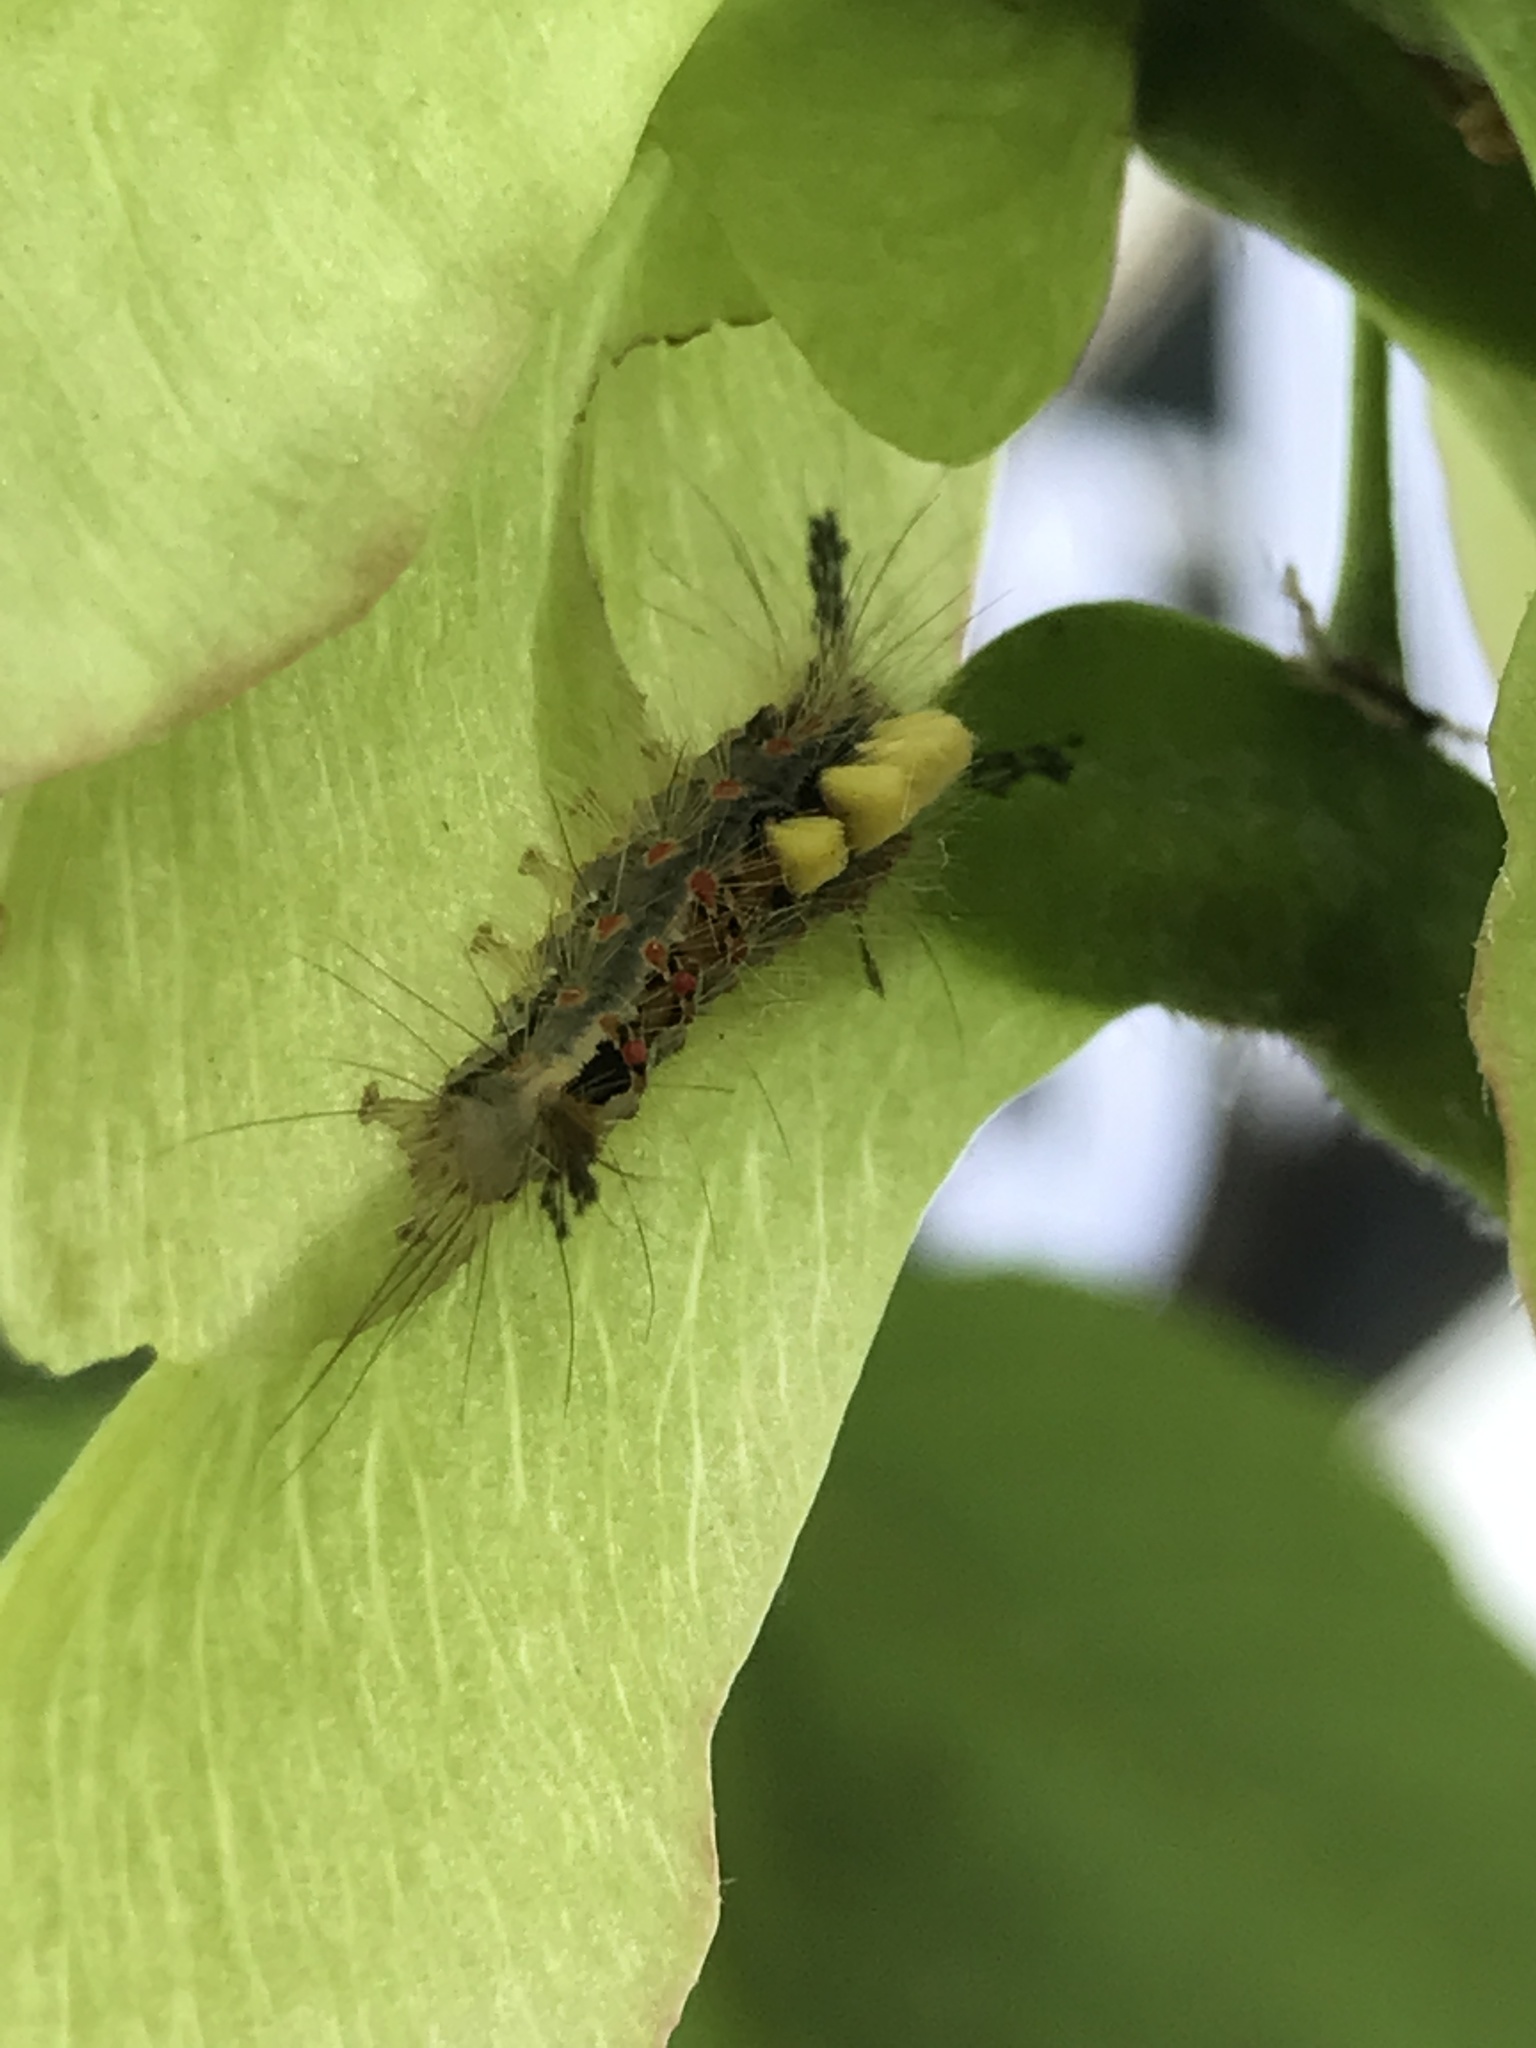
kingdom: Animalia
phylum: Arthropoda
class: Insecta
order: Lepidoptera
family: Erebidae
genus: Orgyia
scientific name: Orgyia antiqua
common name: Vapourer
